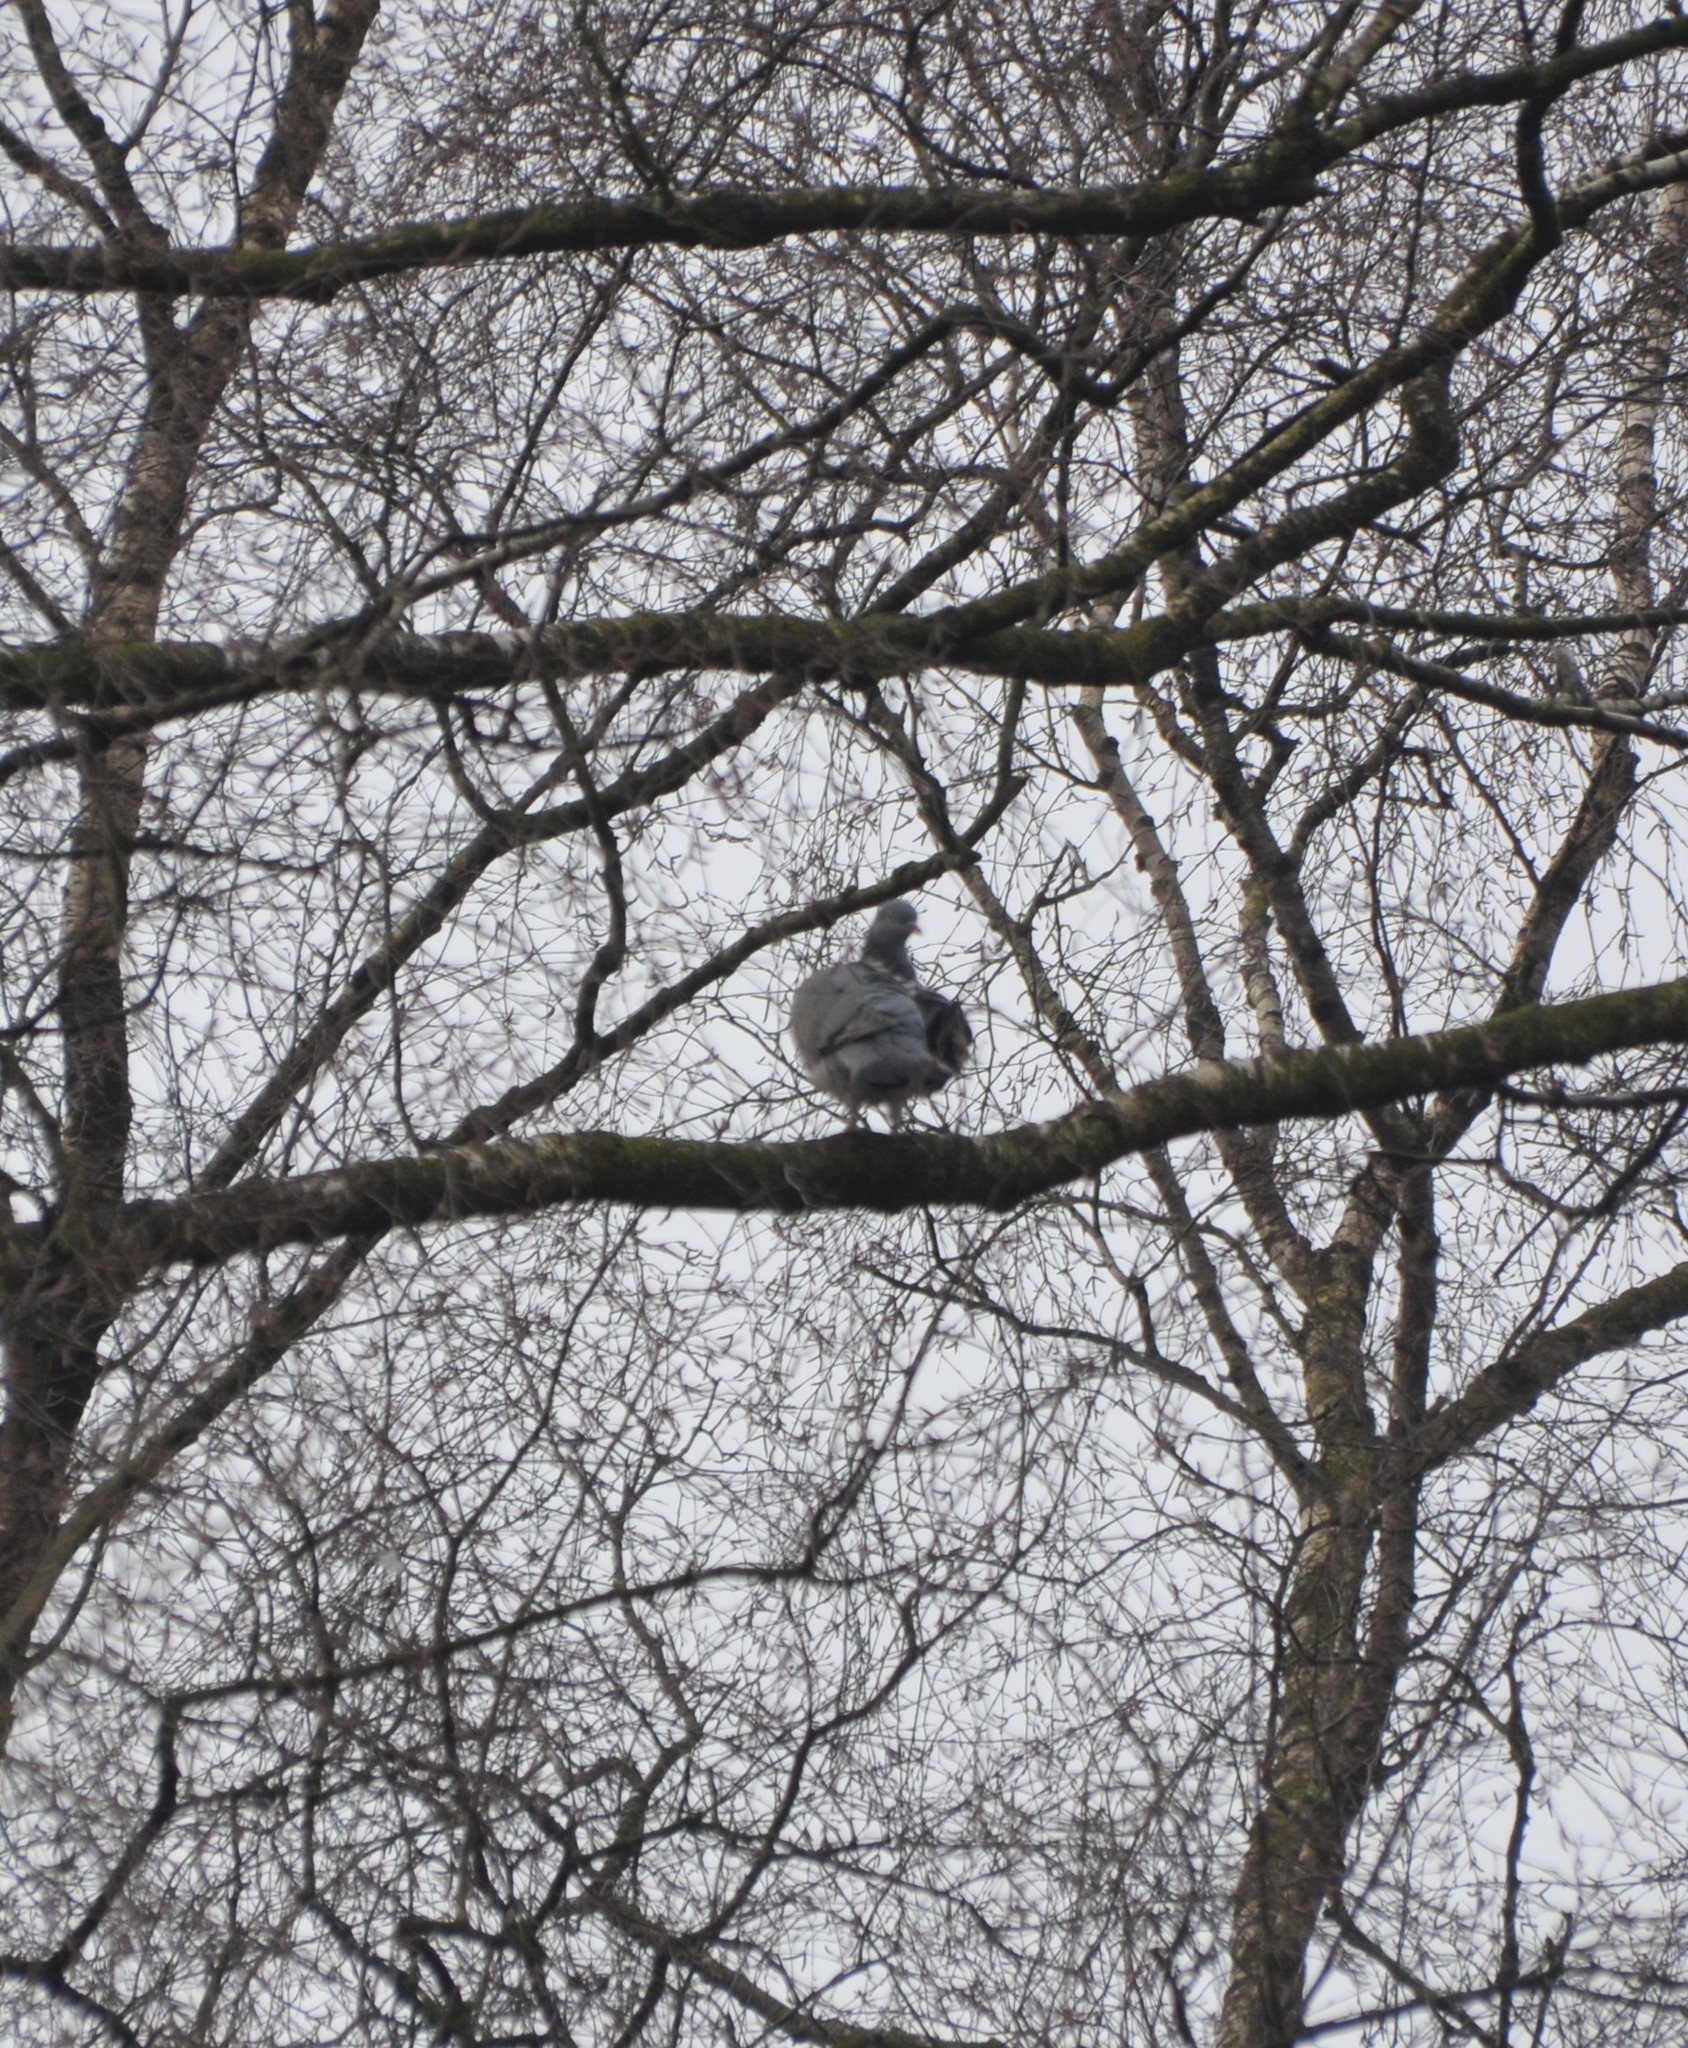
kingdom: Animalia
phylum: Chordata
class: Aves
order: Columbiformes
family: Columbidae
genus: Columba
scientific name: Columba palumbus
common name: Common wood pigeon
